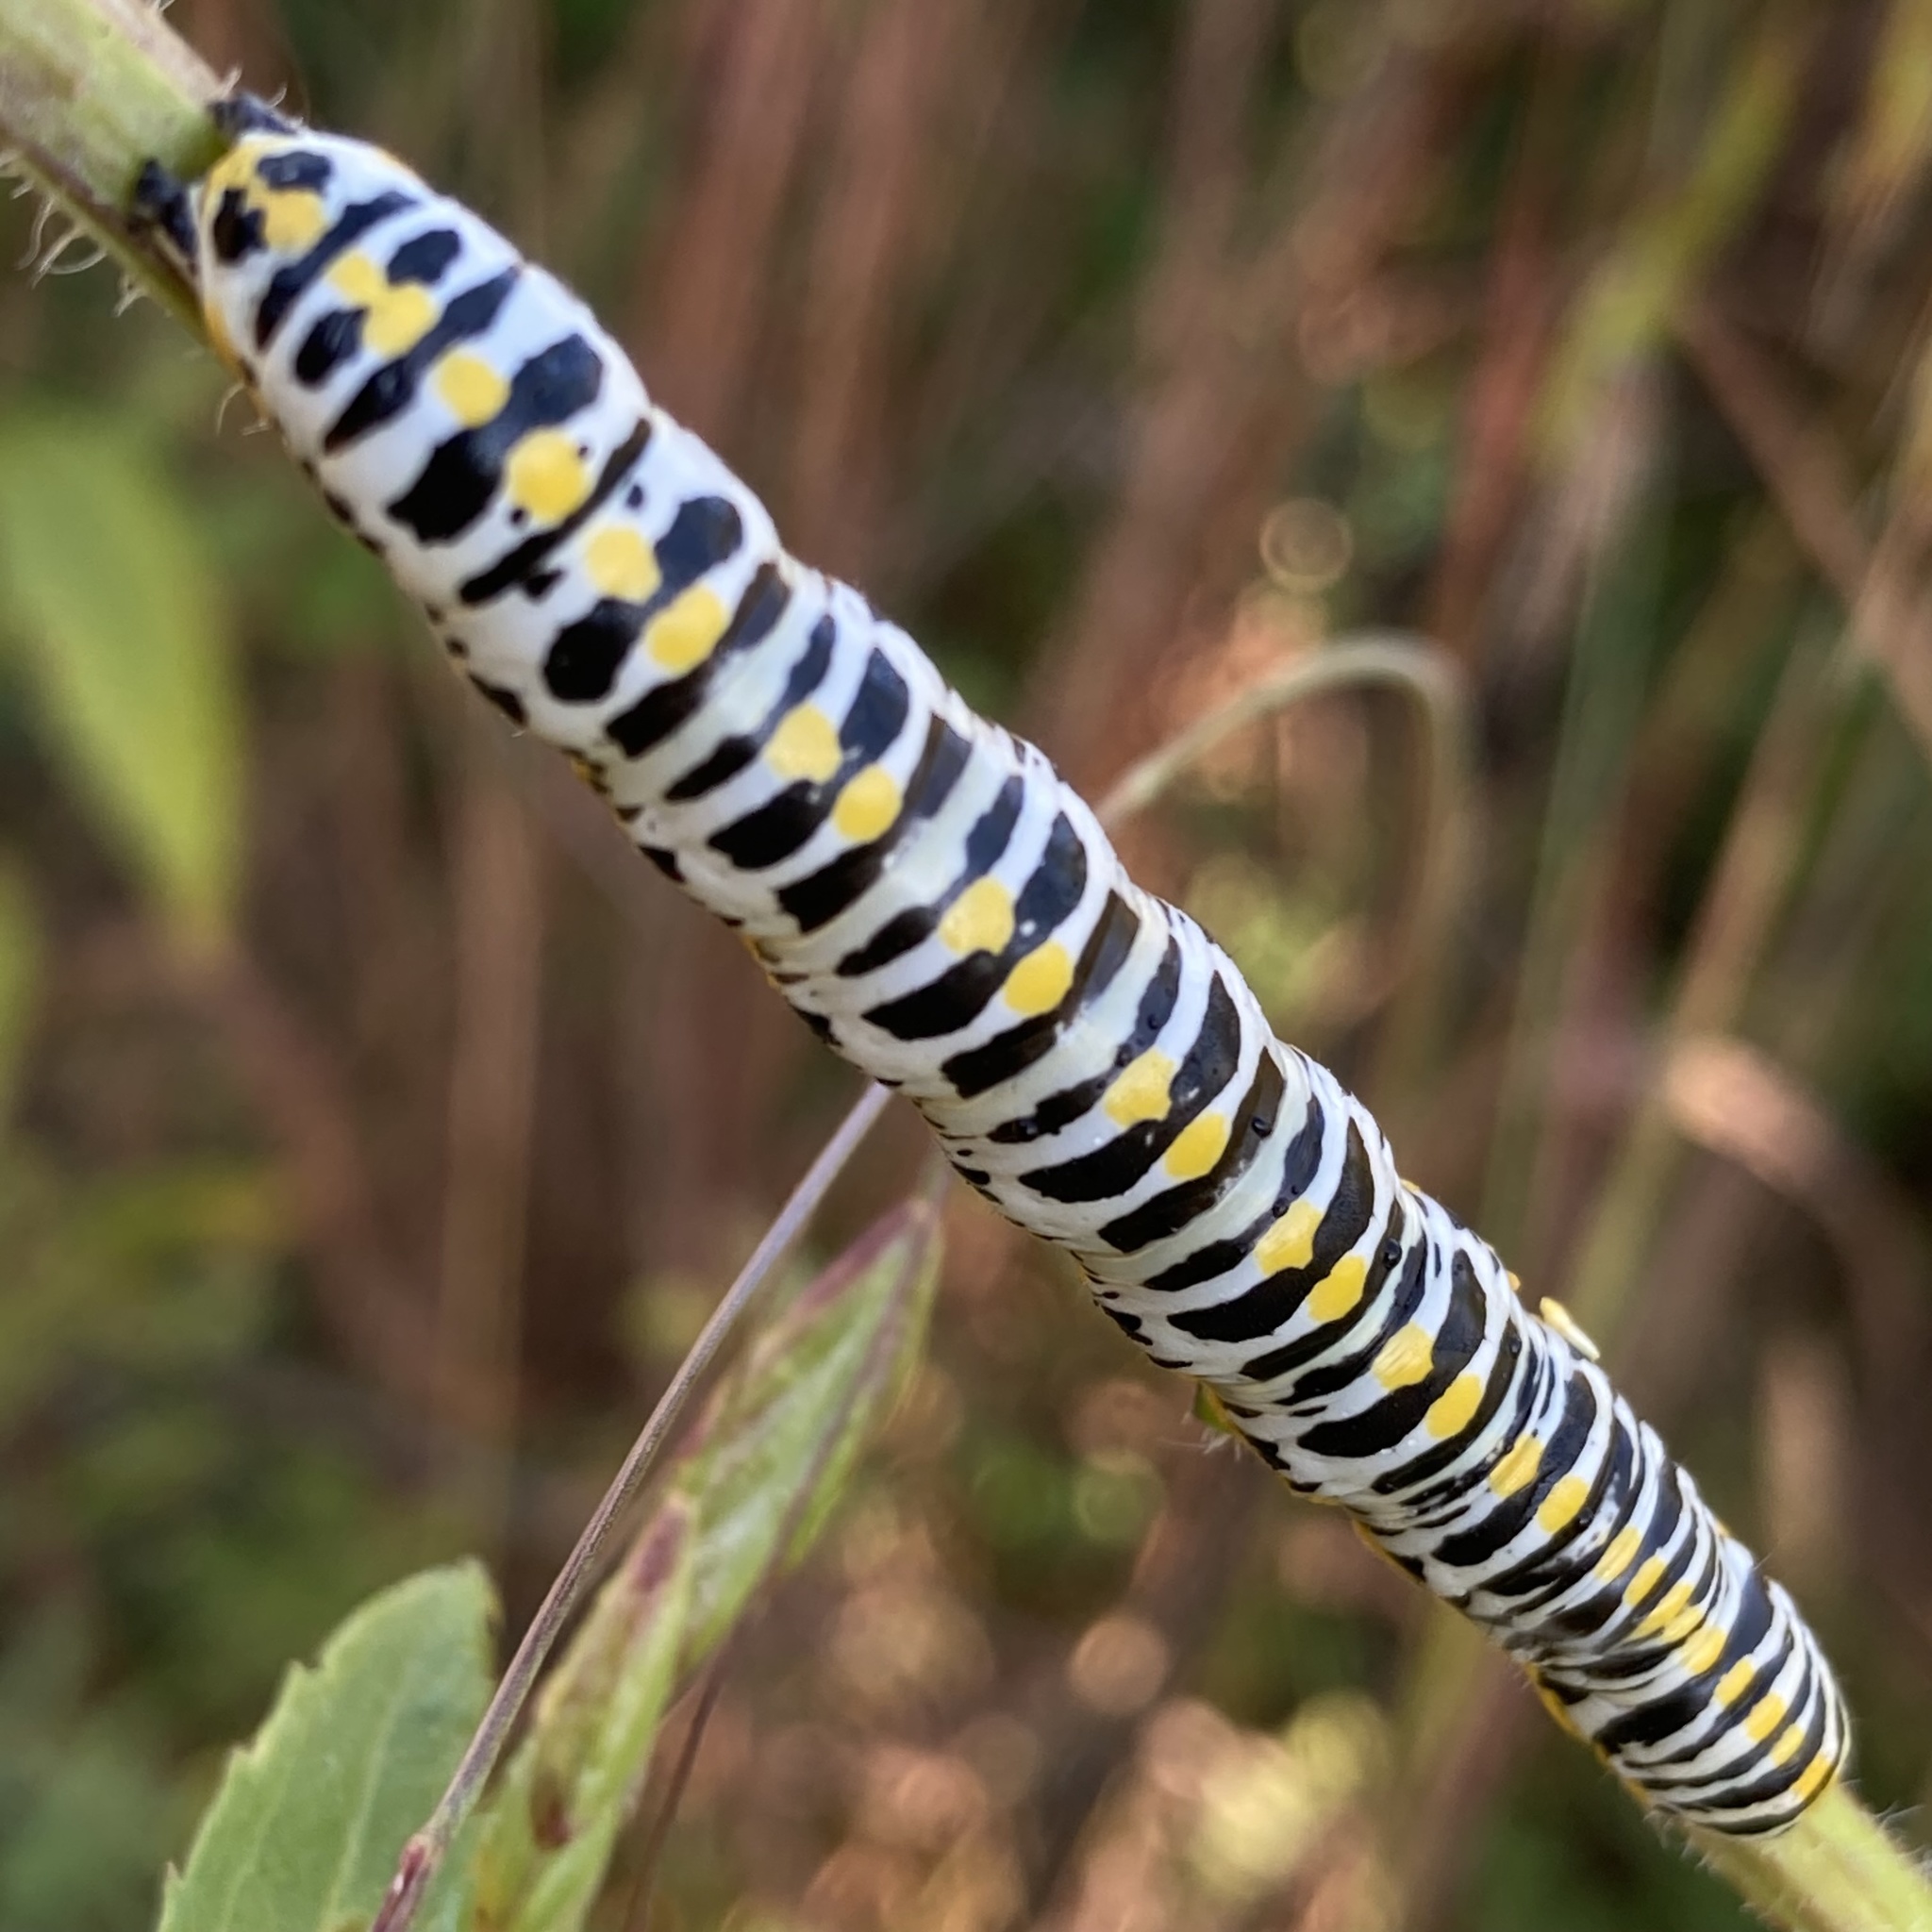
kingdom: Animalia
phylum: Arthropoda
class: Insecta
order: Lepidoptera
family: Noctuidae
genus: Cucullia
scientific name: Cucullia speyeri
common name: Speyer's cucullia moth
